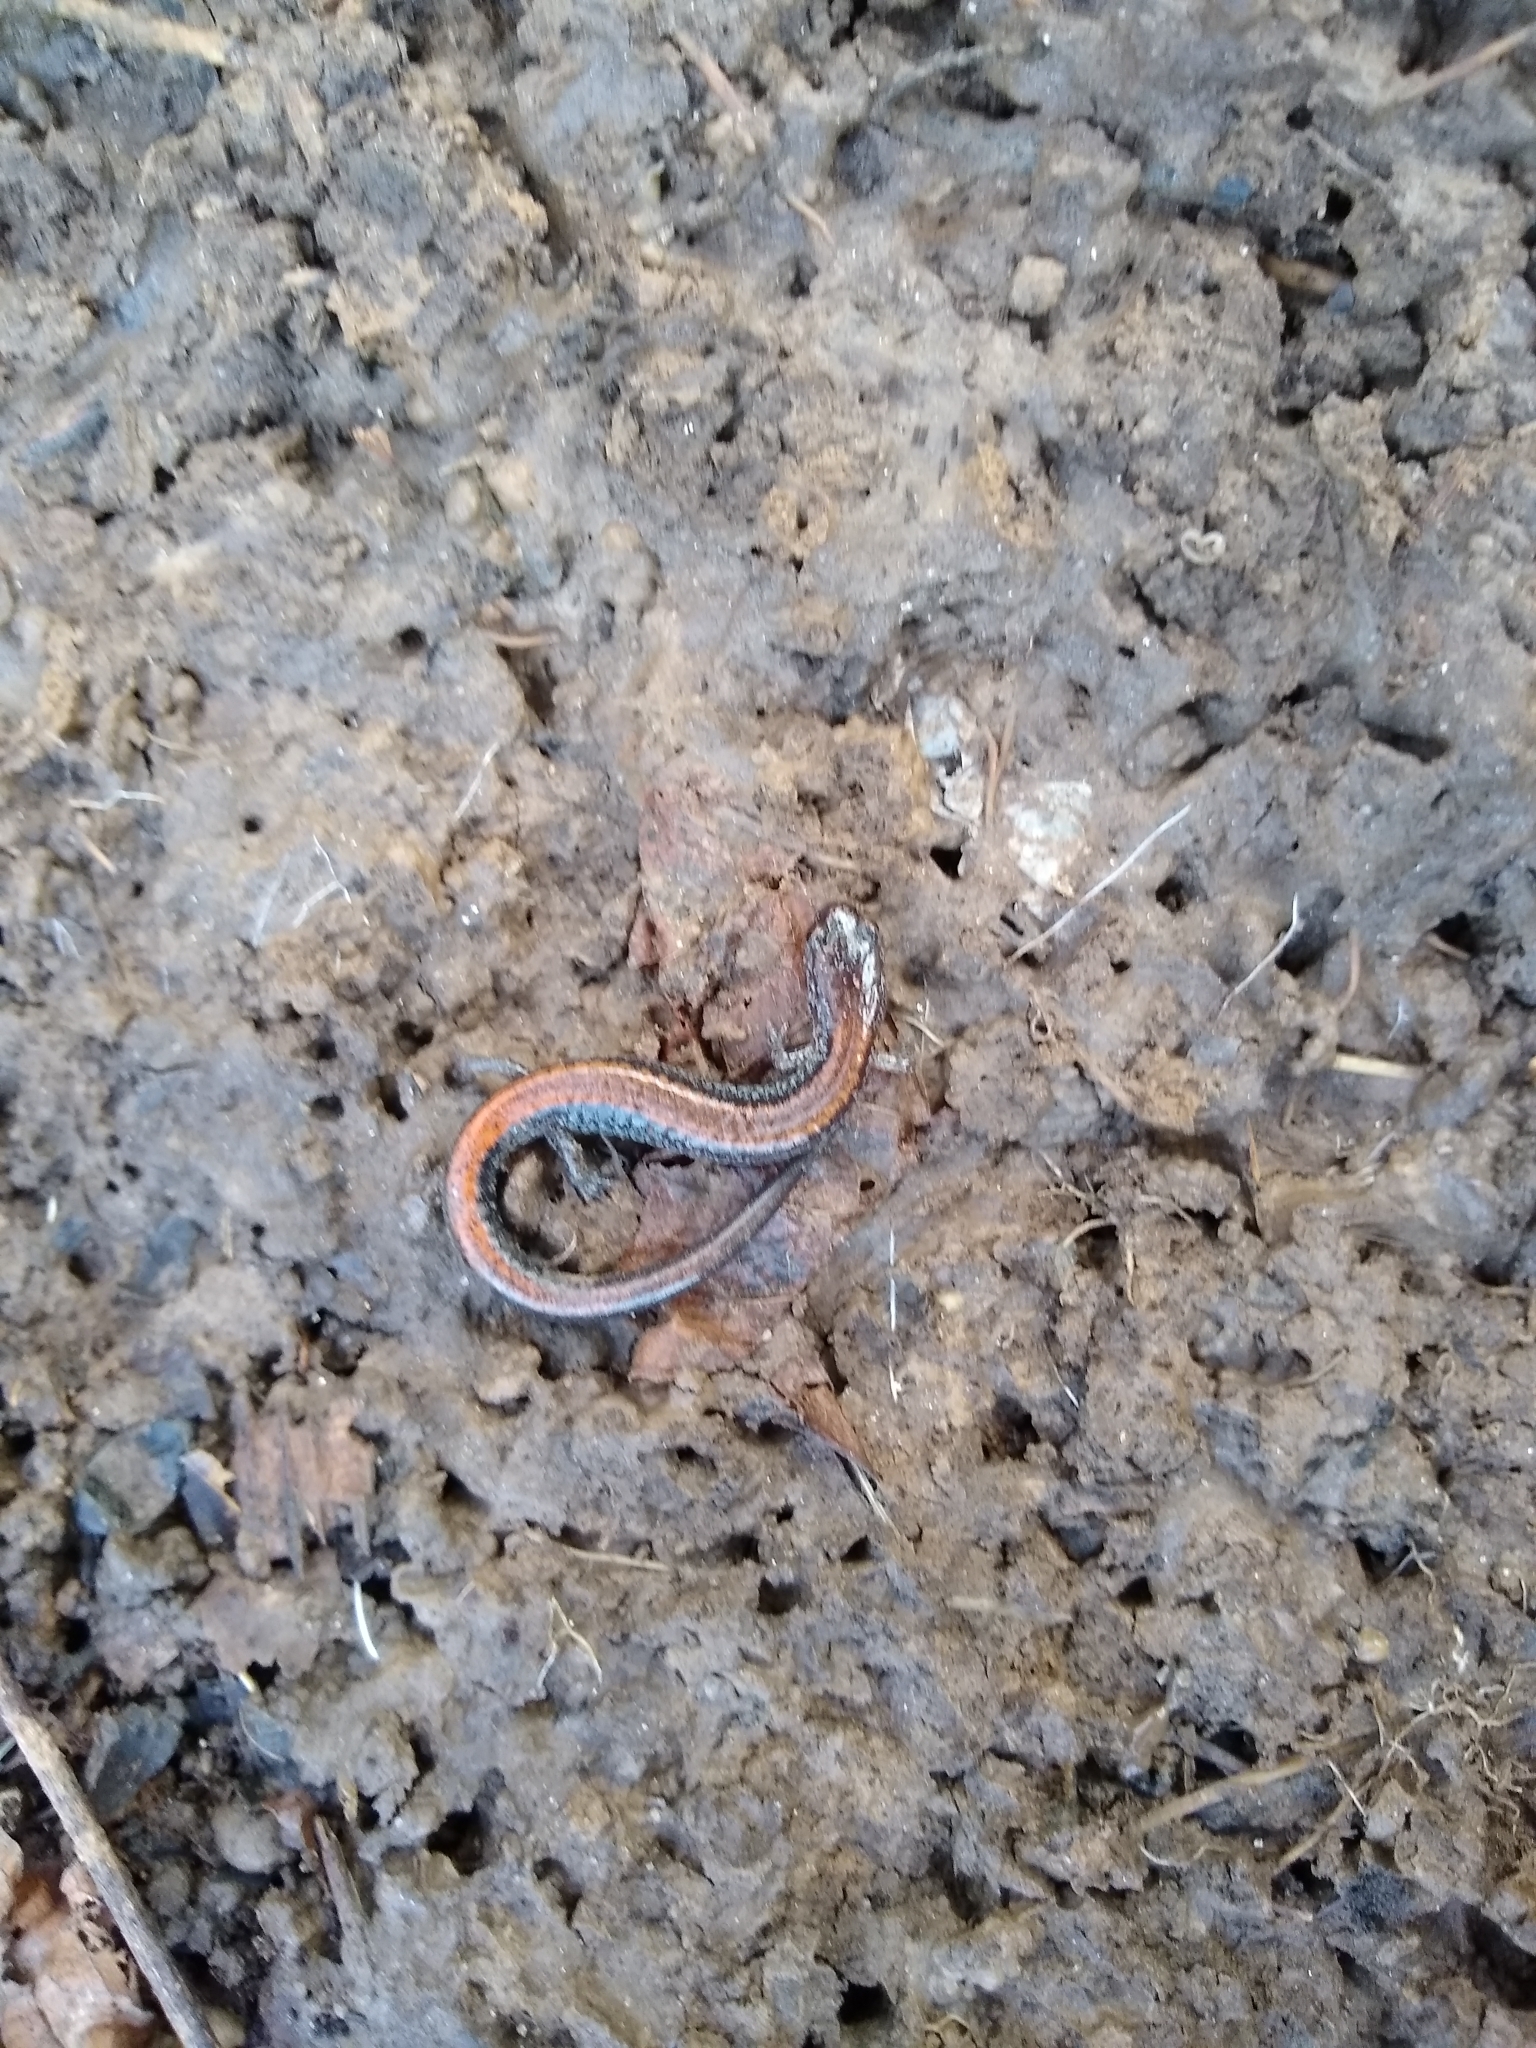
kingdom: Animalia
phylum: Chordata
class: Amphibia
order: Caudata
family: Plethodontidae
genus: Plethodon
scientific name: Plethodon cinereus
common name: Redback salamander
